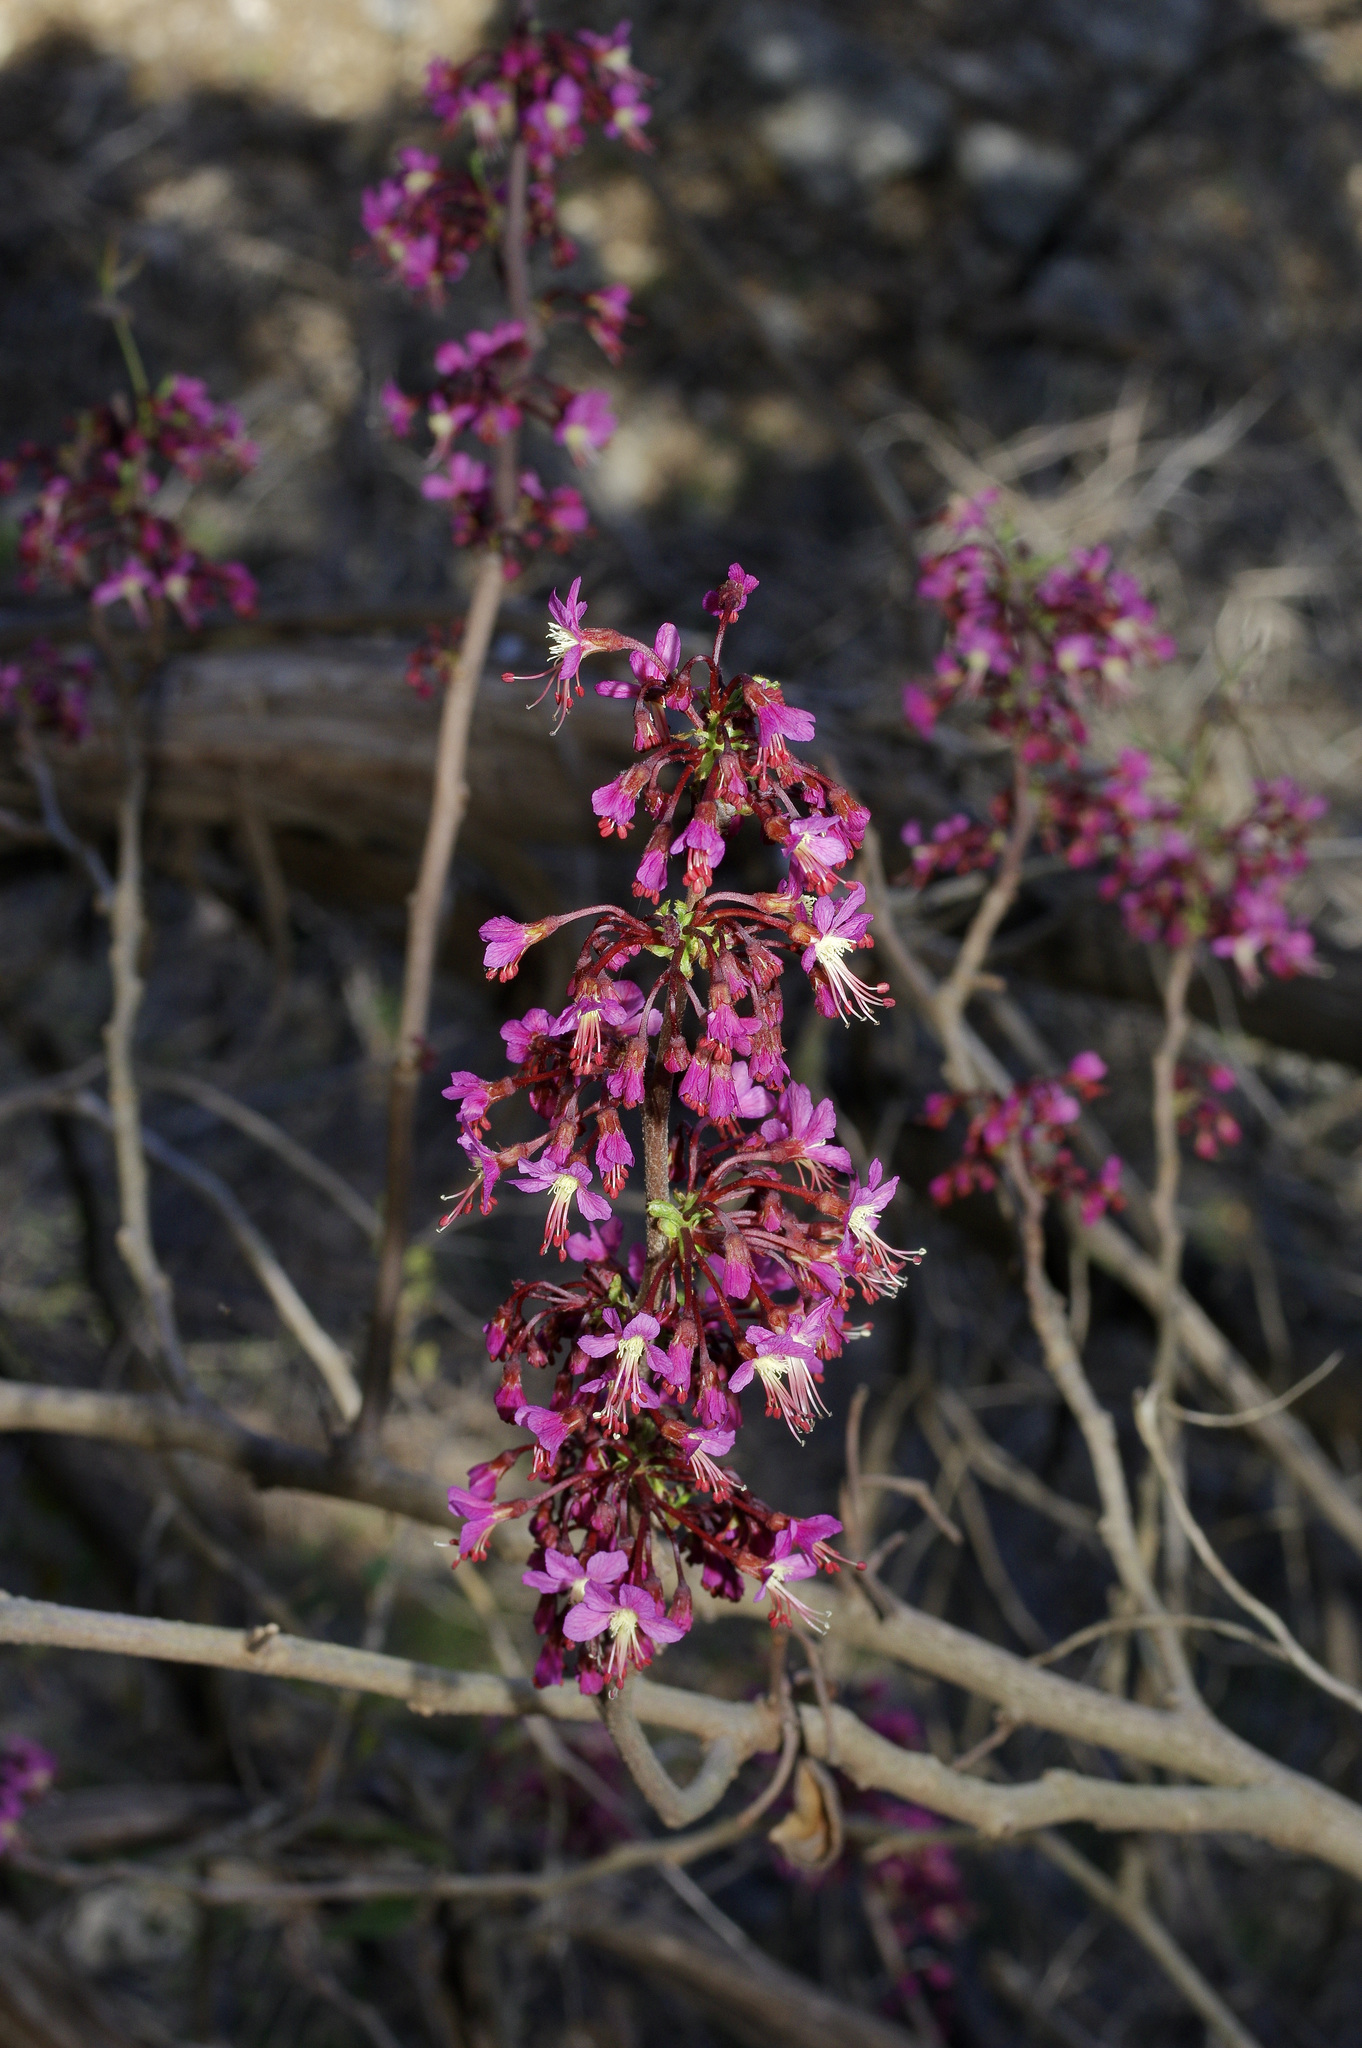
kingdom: Plantae
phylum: Tracheophyta
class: Magnoliopsida
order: Sapindales
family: Sapindaceae
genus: Ungnadia
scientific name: Ungnadia speciosa
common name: Texas-buckeye
